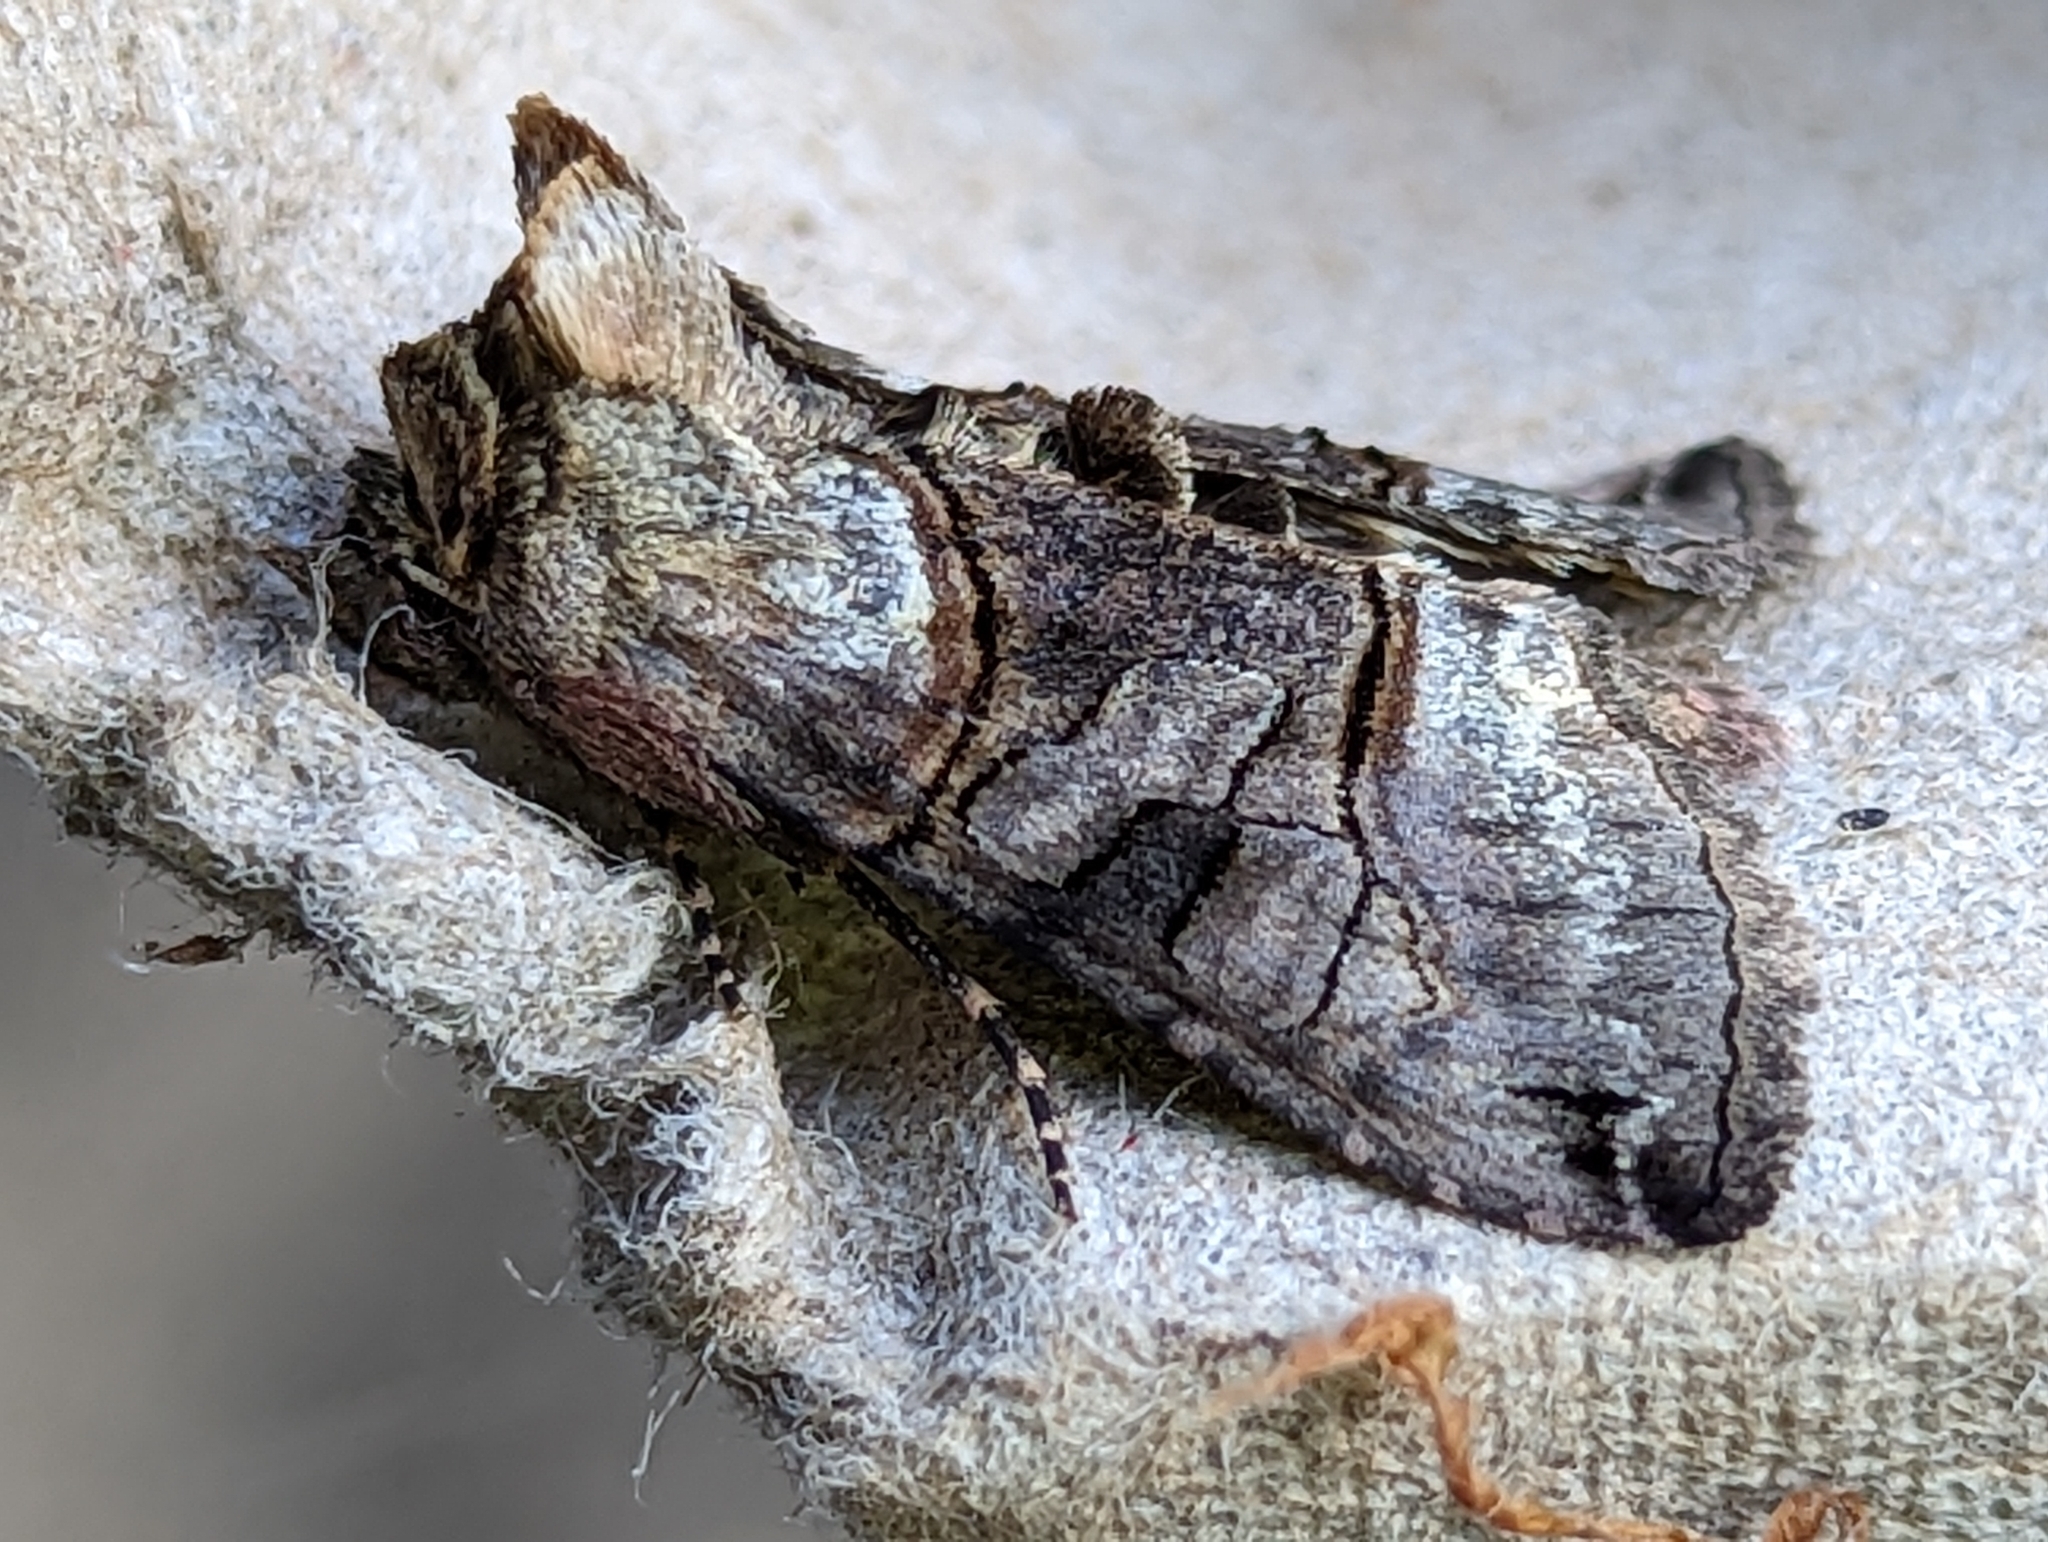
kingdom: Animalia
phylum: Arthropoda
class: Insecta
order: Lepidoptera
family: Noctuidae
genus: Abrostola
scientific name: Abrostola tripartita
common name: Spectacle
